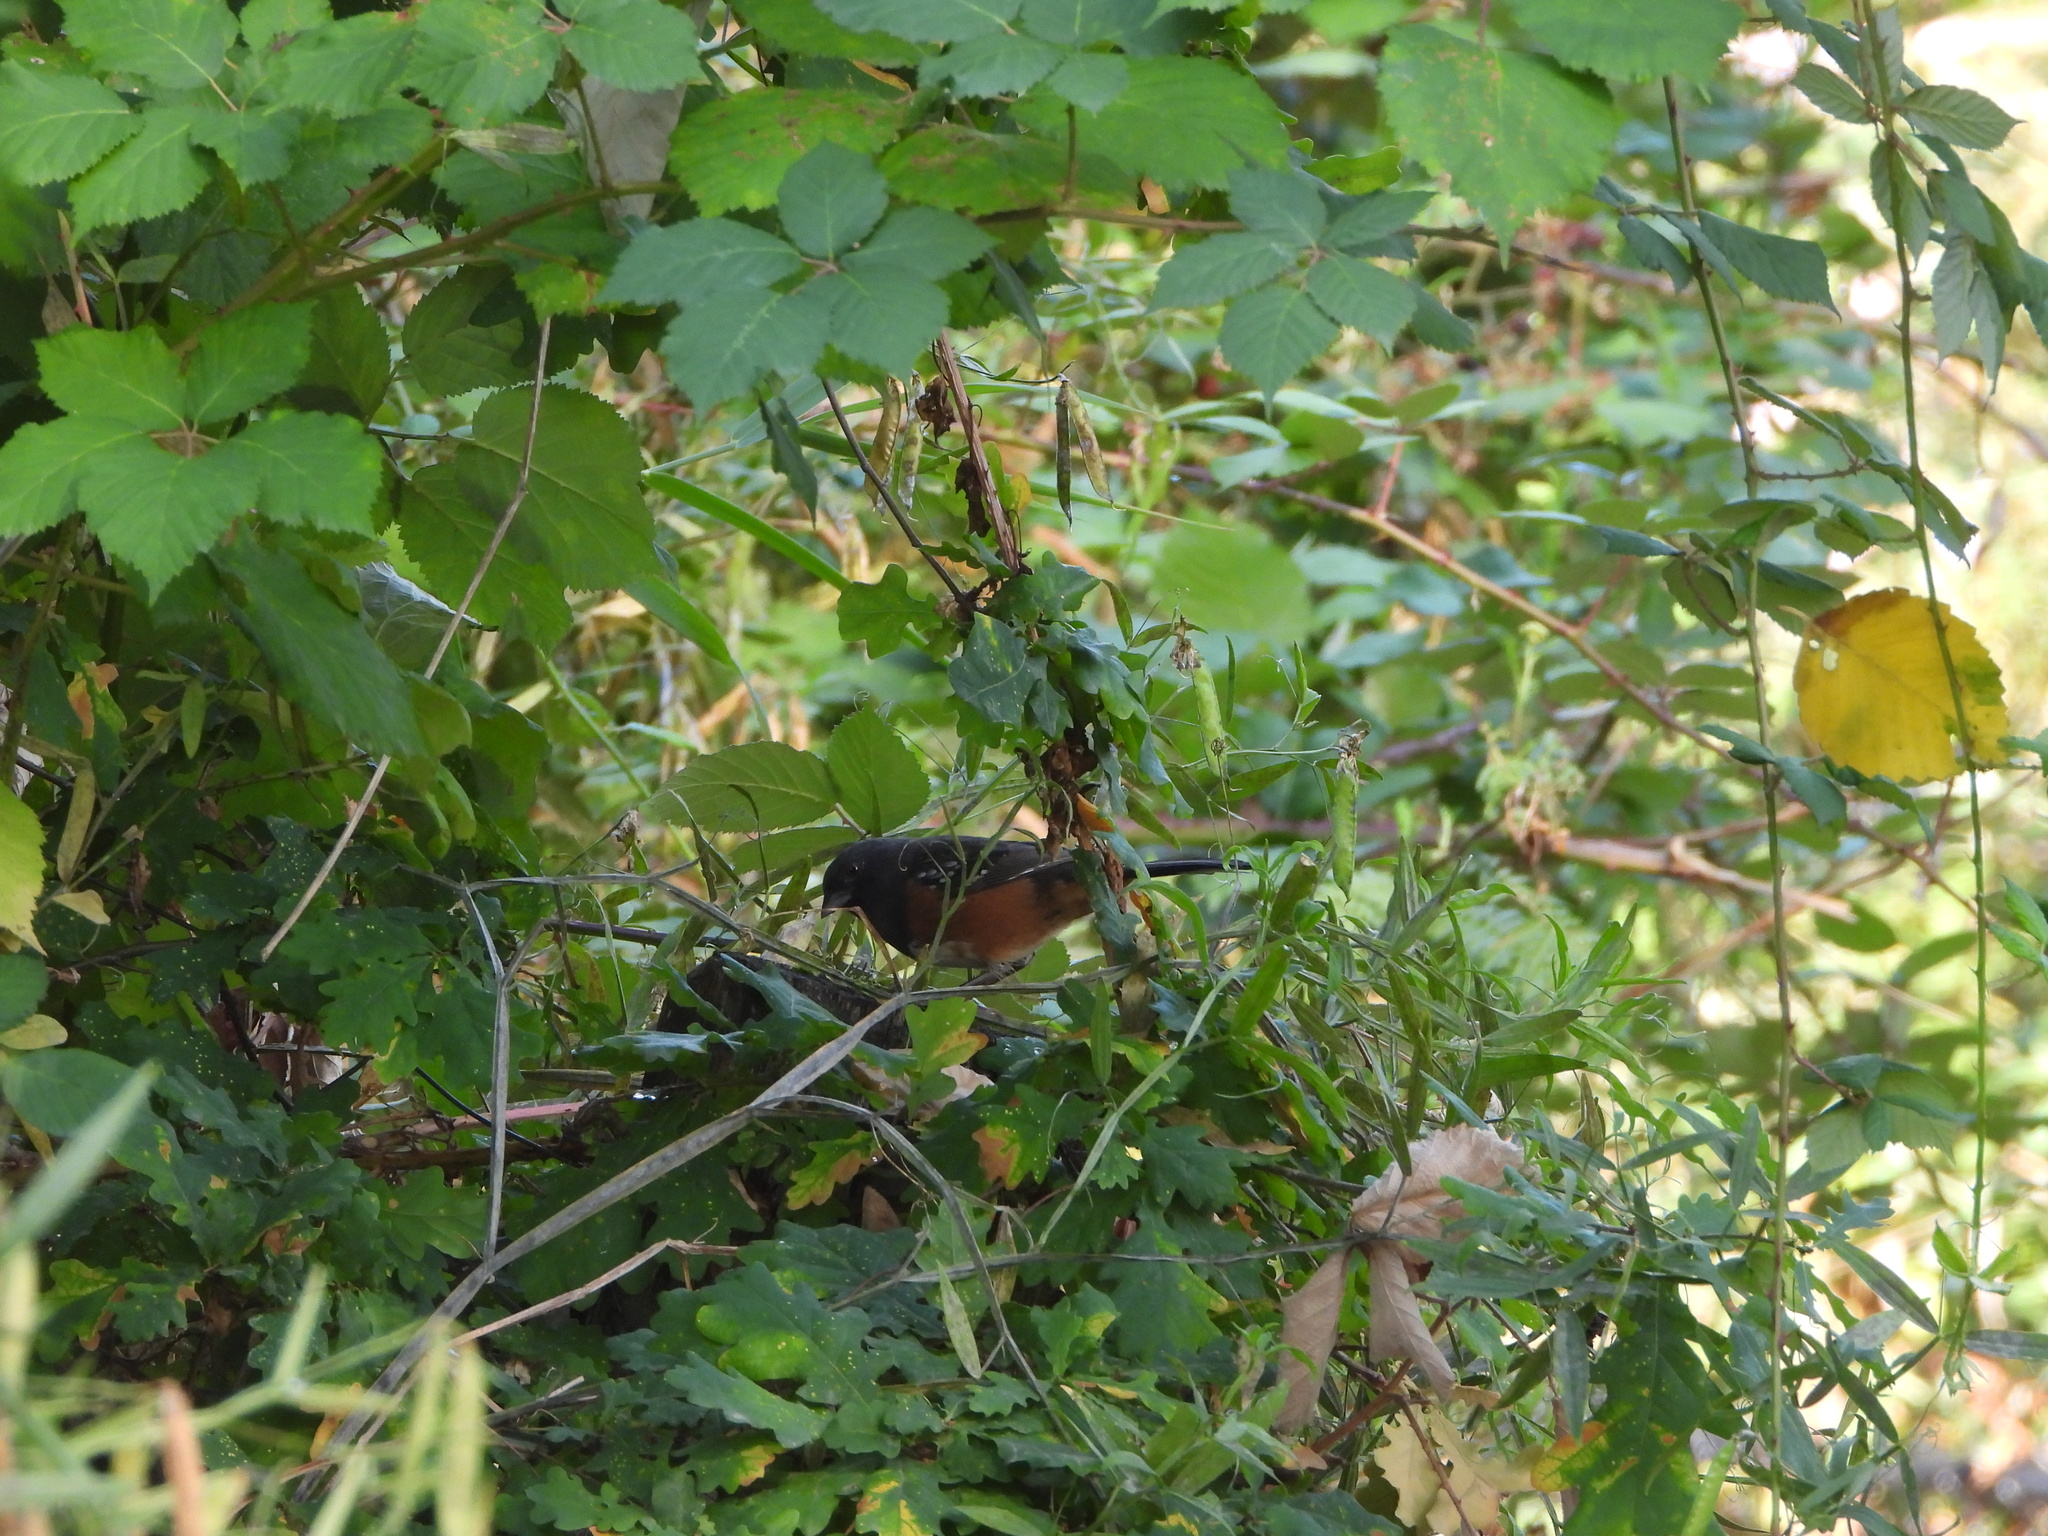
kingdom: Animalia
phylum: Chordata
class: Aves
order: Passeriformes
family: Passerellidae
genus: Pipilo
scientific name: Pipilo maculatus
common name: Spotted towhee
